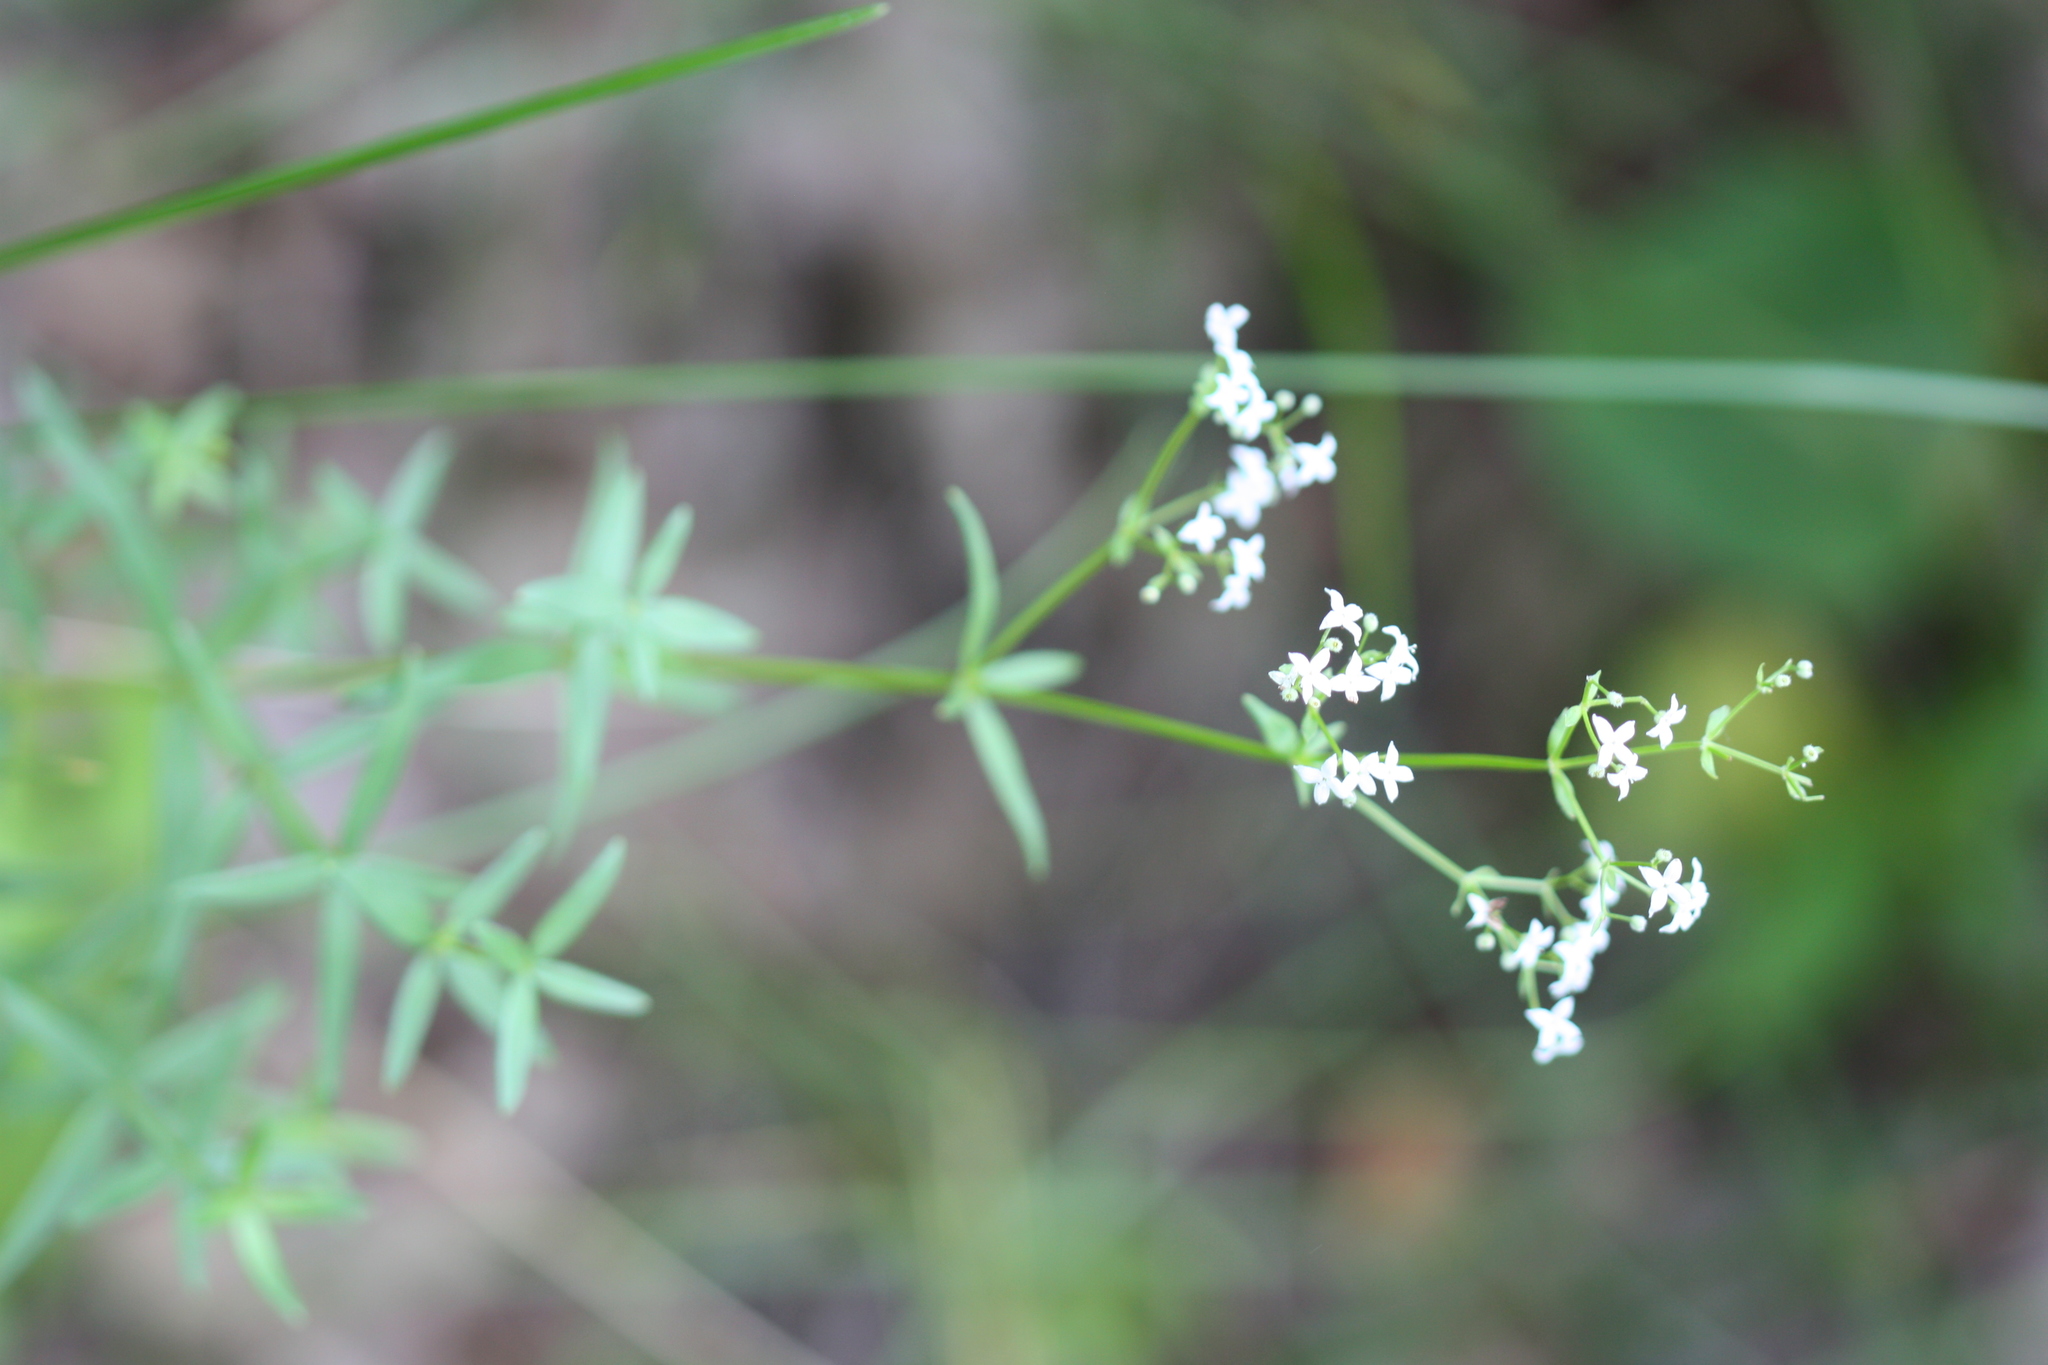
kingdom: Plantae
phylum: Tracheophyta
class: Magnoliopsida
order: Gentianales
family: Rubiaceae
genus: Galium
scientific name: Galium boreale
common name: Northern bedstraw
